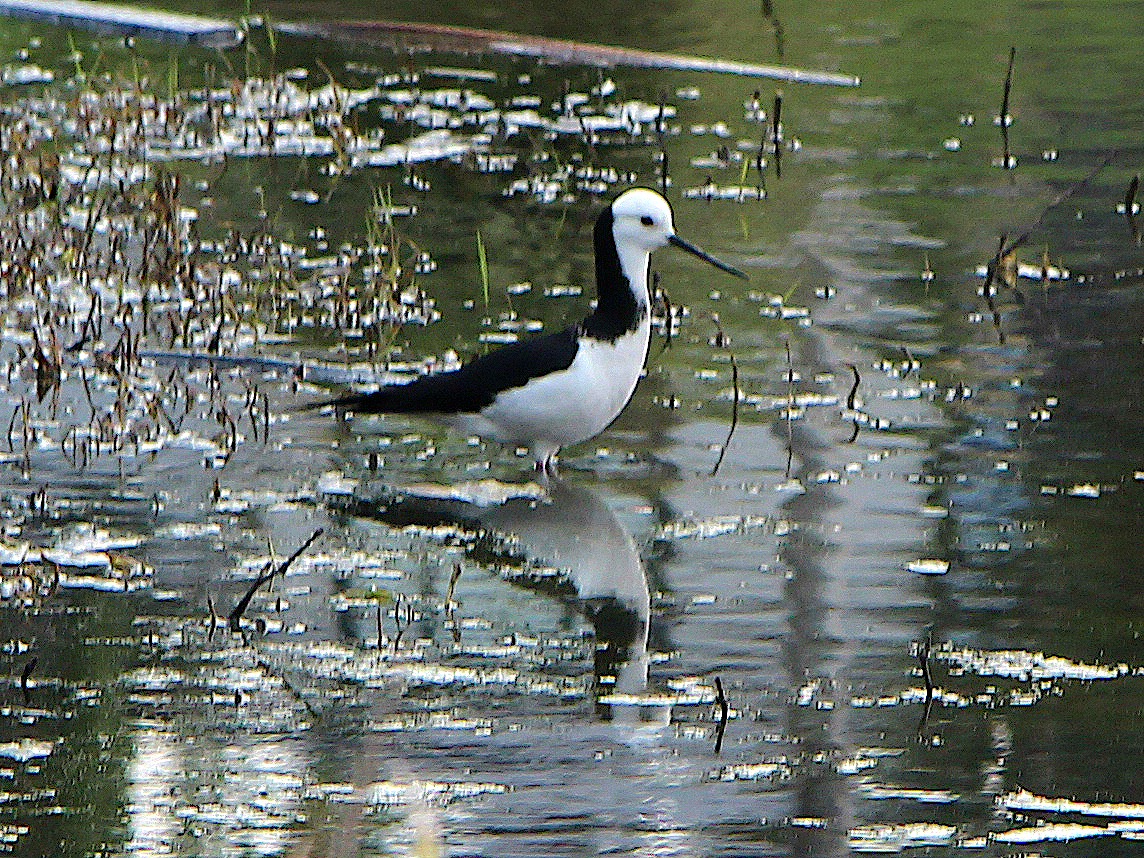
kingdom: Animalia
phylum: Chordata
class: Aves
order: Charadriiformes
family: Recurvirostridae
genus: Himantopus
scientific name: Himantopus
